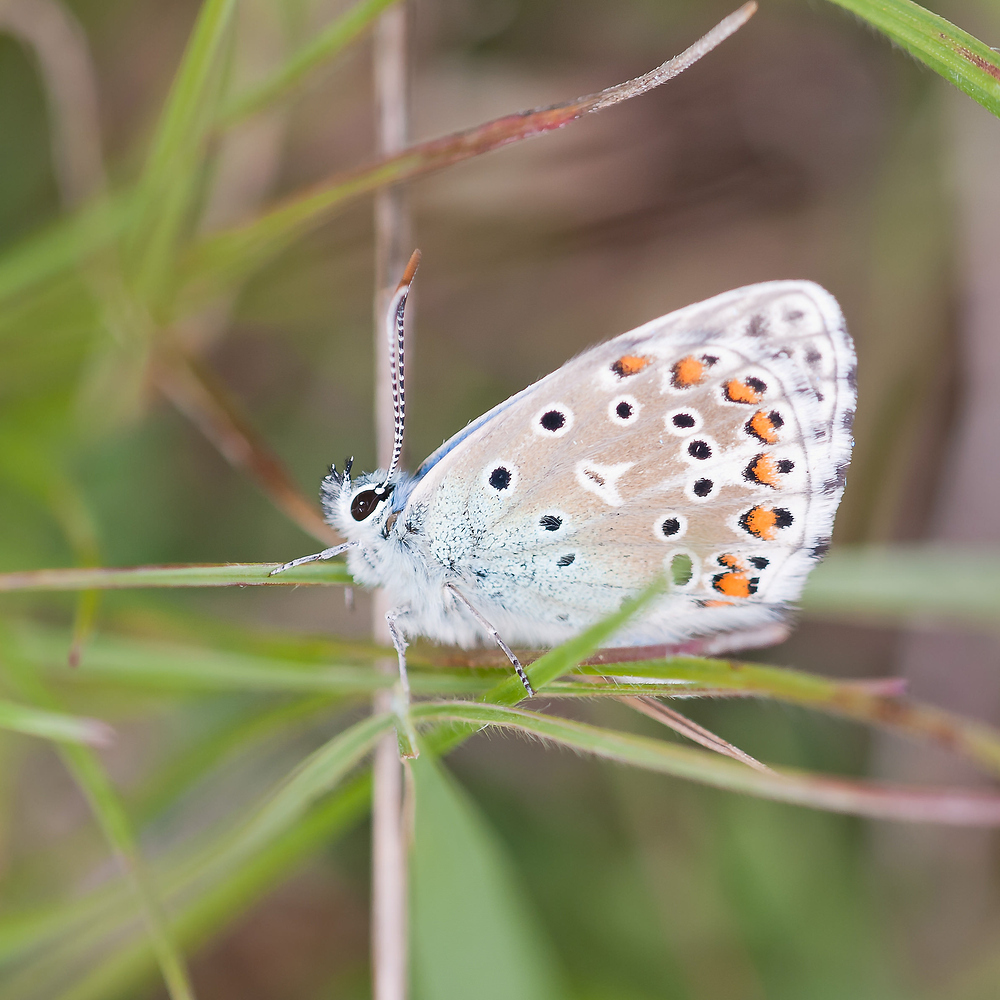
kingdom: Animalia
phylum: Arthropoda
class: Insecta
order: Lepidoptera
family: Lycaenidae
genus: Lysandra
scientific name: Lysandra bellargus
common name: Adonis blue
